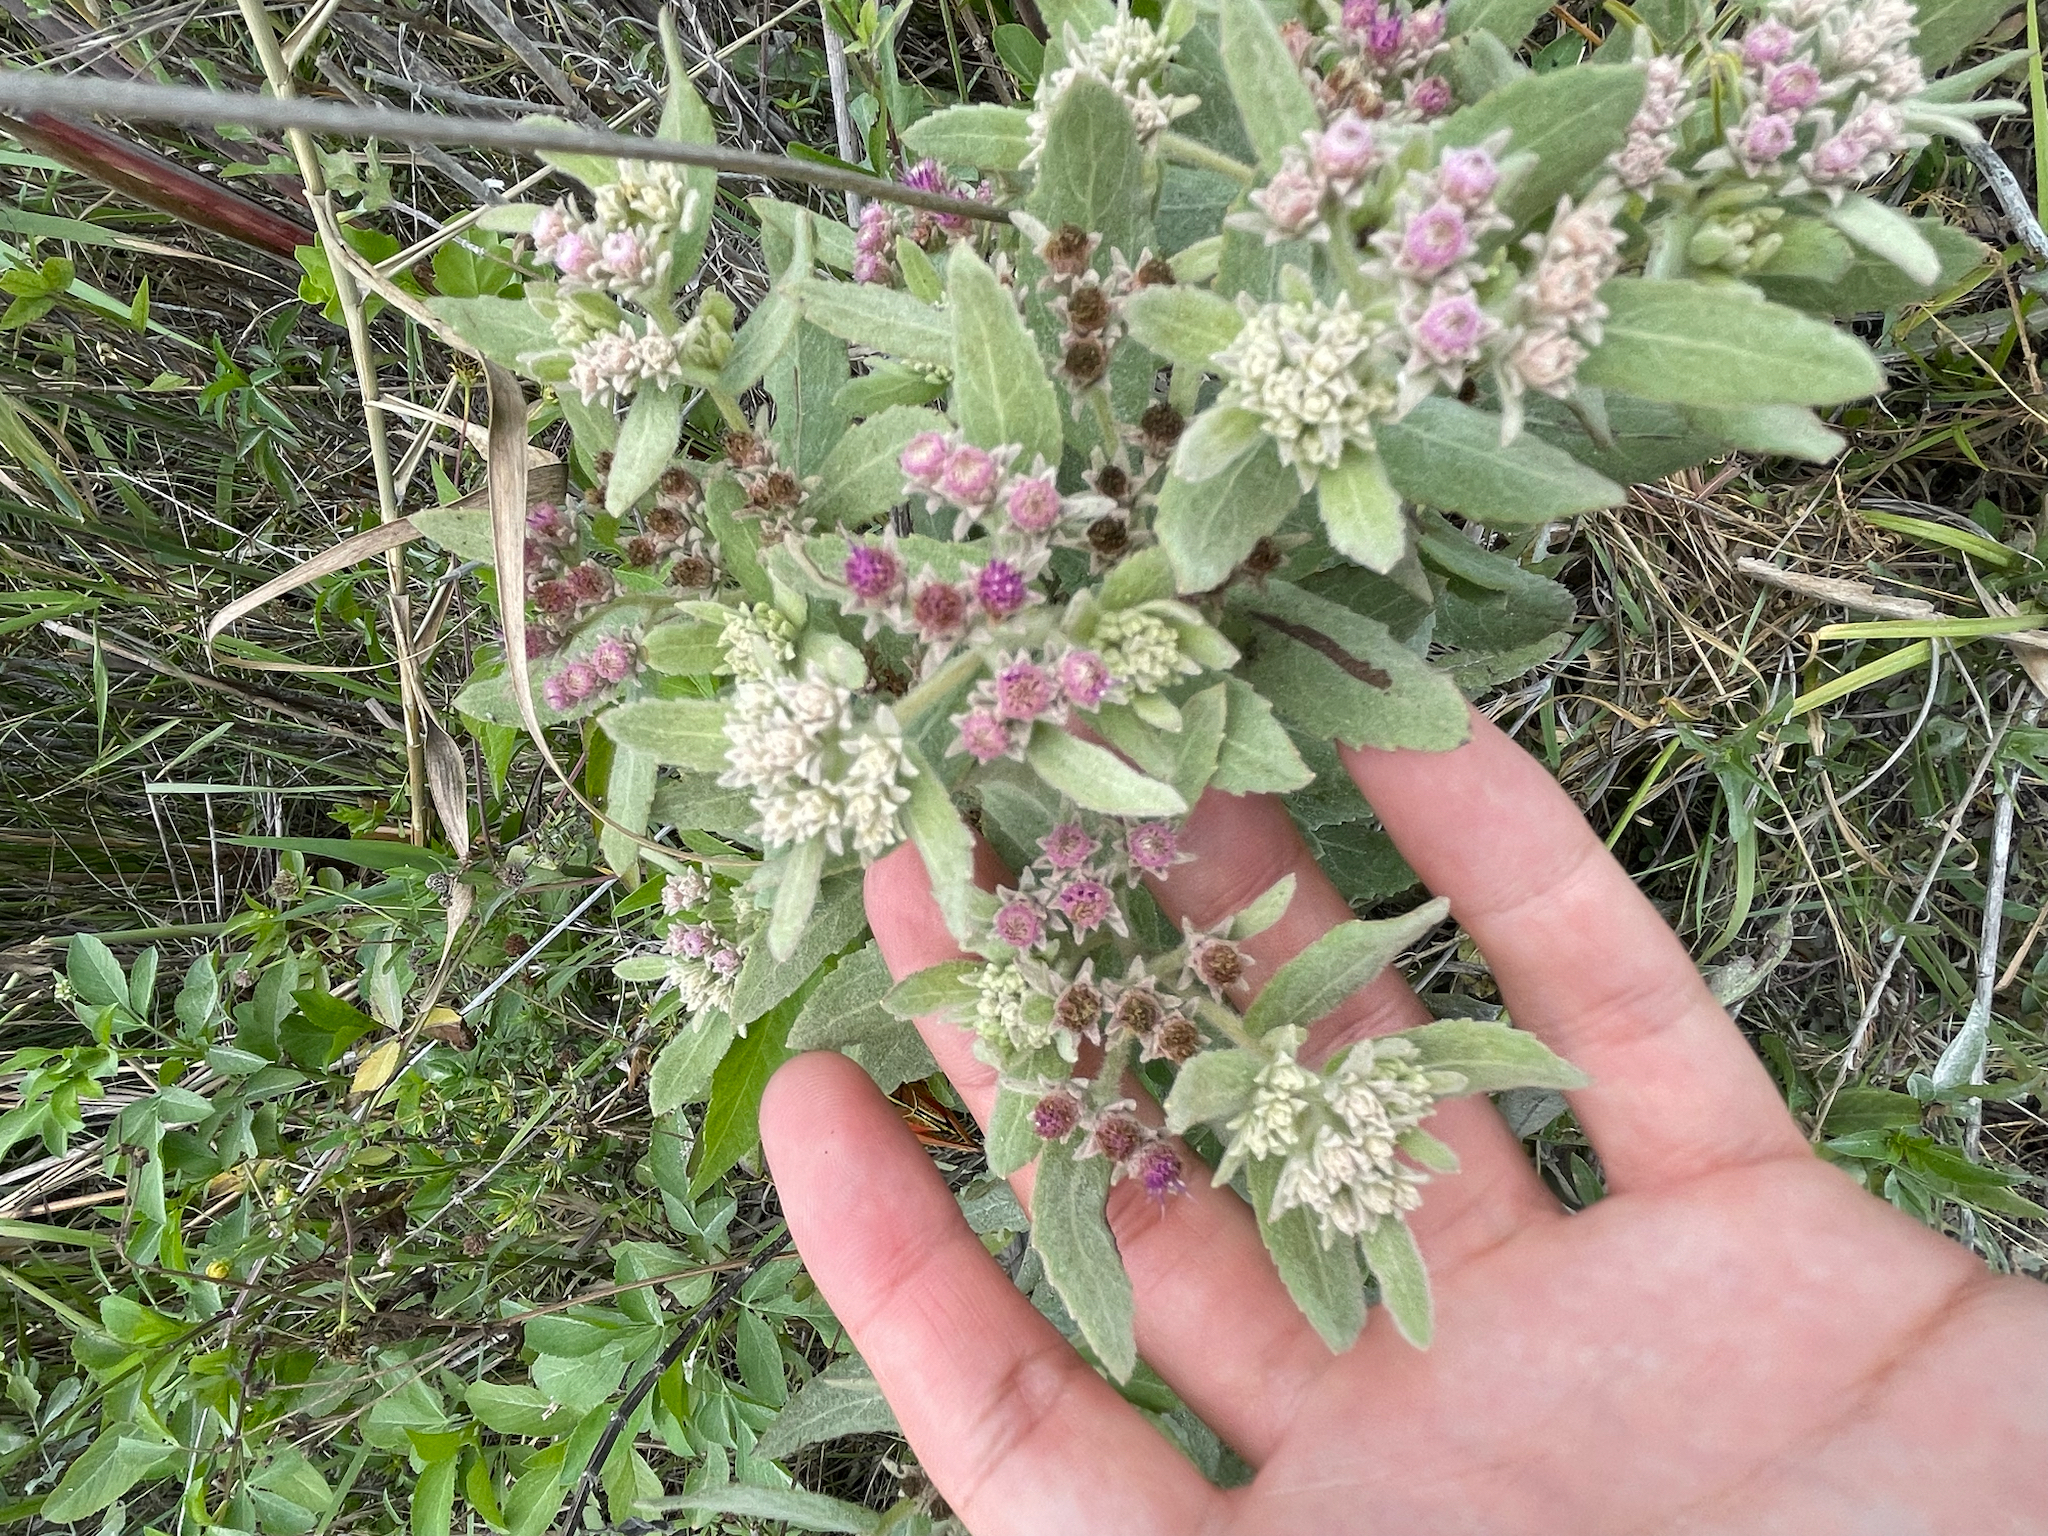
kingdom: Plantae
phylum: Tracheophyta
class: Magnoliopsida
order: Asterales
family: Asteraceae
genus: Pluchea
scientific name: Pluchea baccharis
